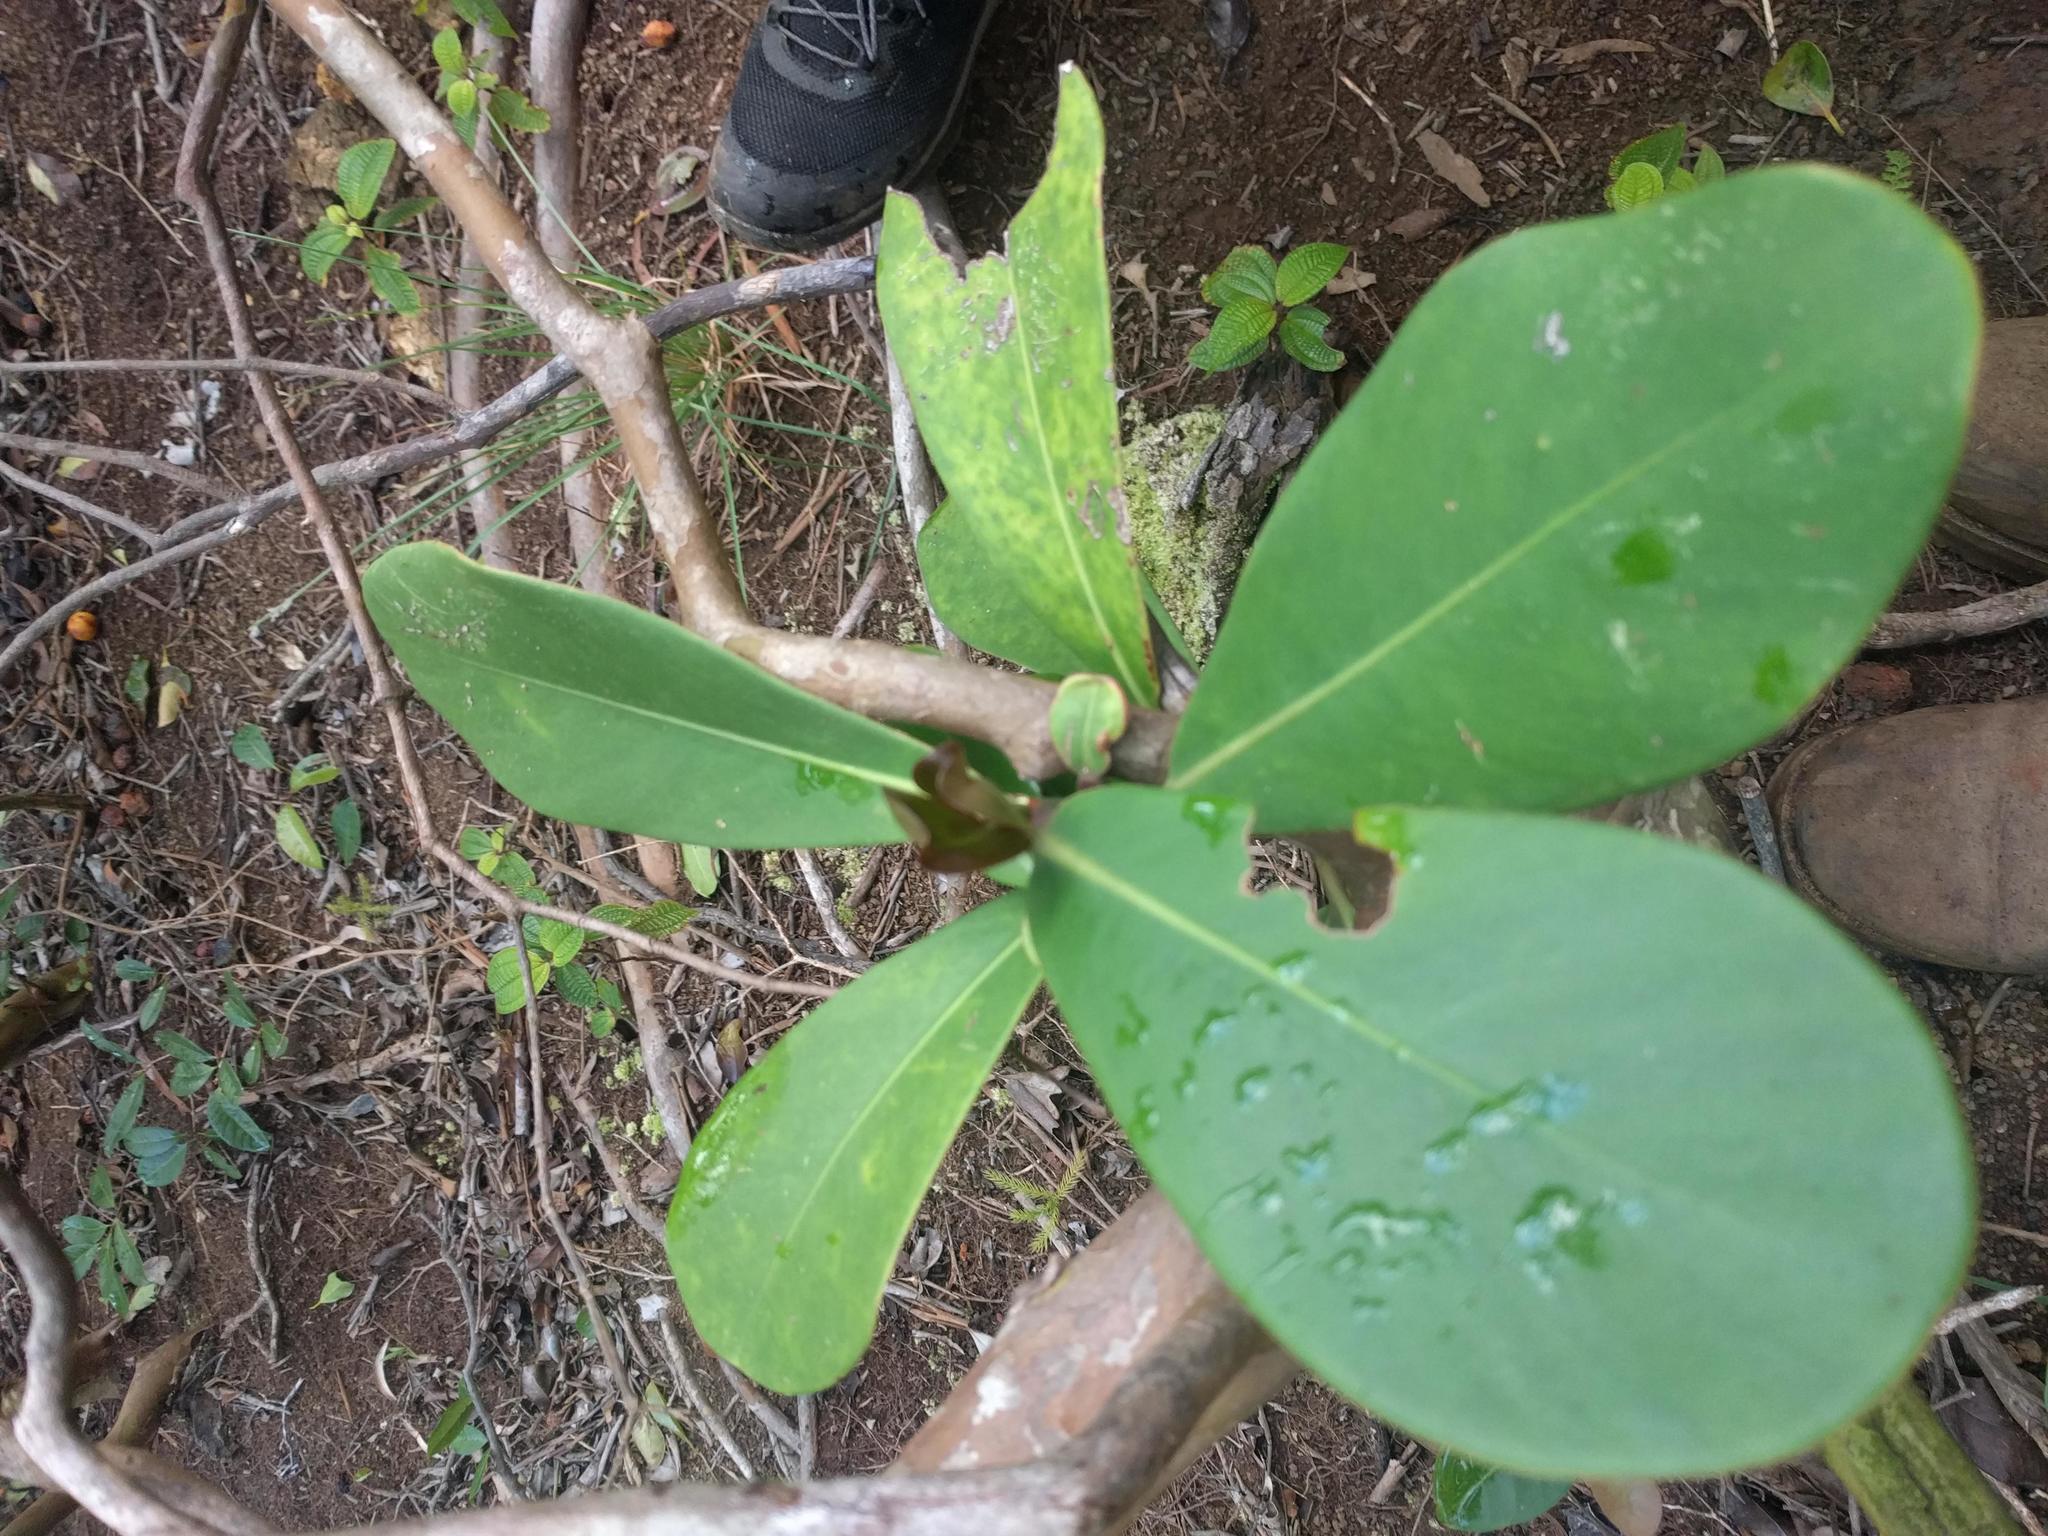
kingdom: Plantae
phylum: Tracheophyta
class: Magnoliopsida
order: Malpighiales
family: Clusiaceae
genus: Clusia
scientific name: Clusia rosea
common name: Scotch attorney
